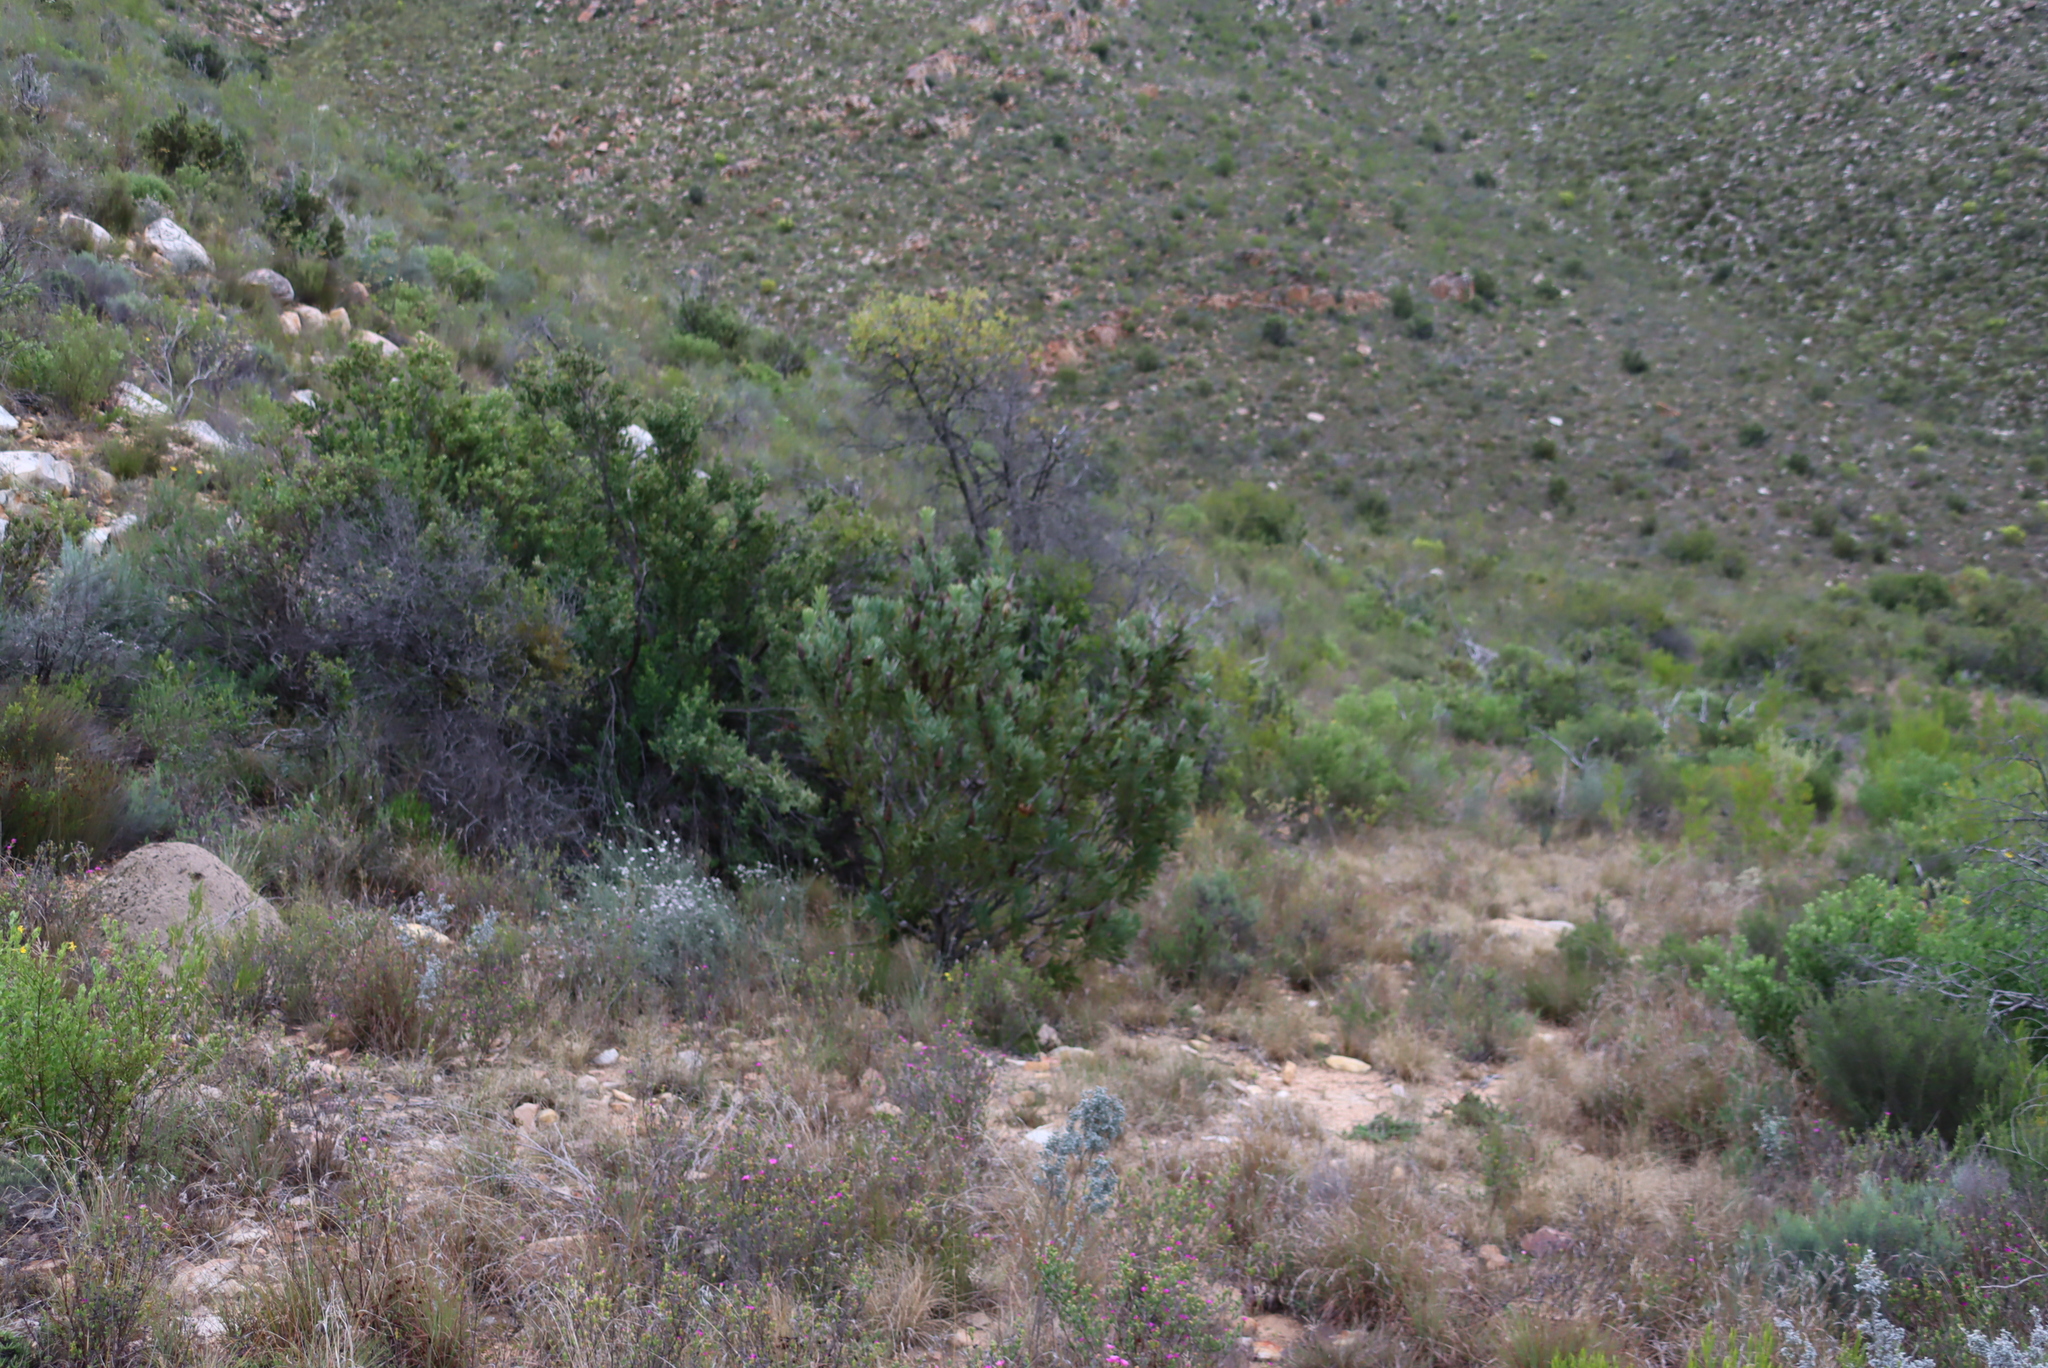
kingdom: Plantae
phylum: Tracheophyta
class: Magnoliopsida
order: Proteales
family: Proteaceae
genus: Protea
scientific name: Protea repens
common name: Sugarbush
